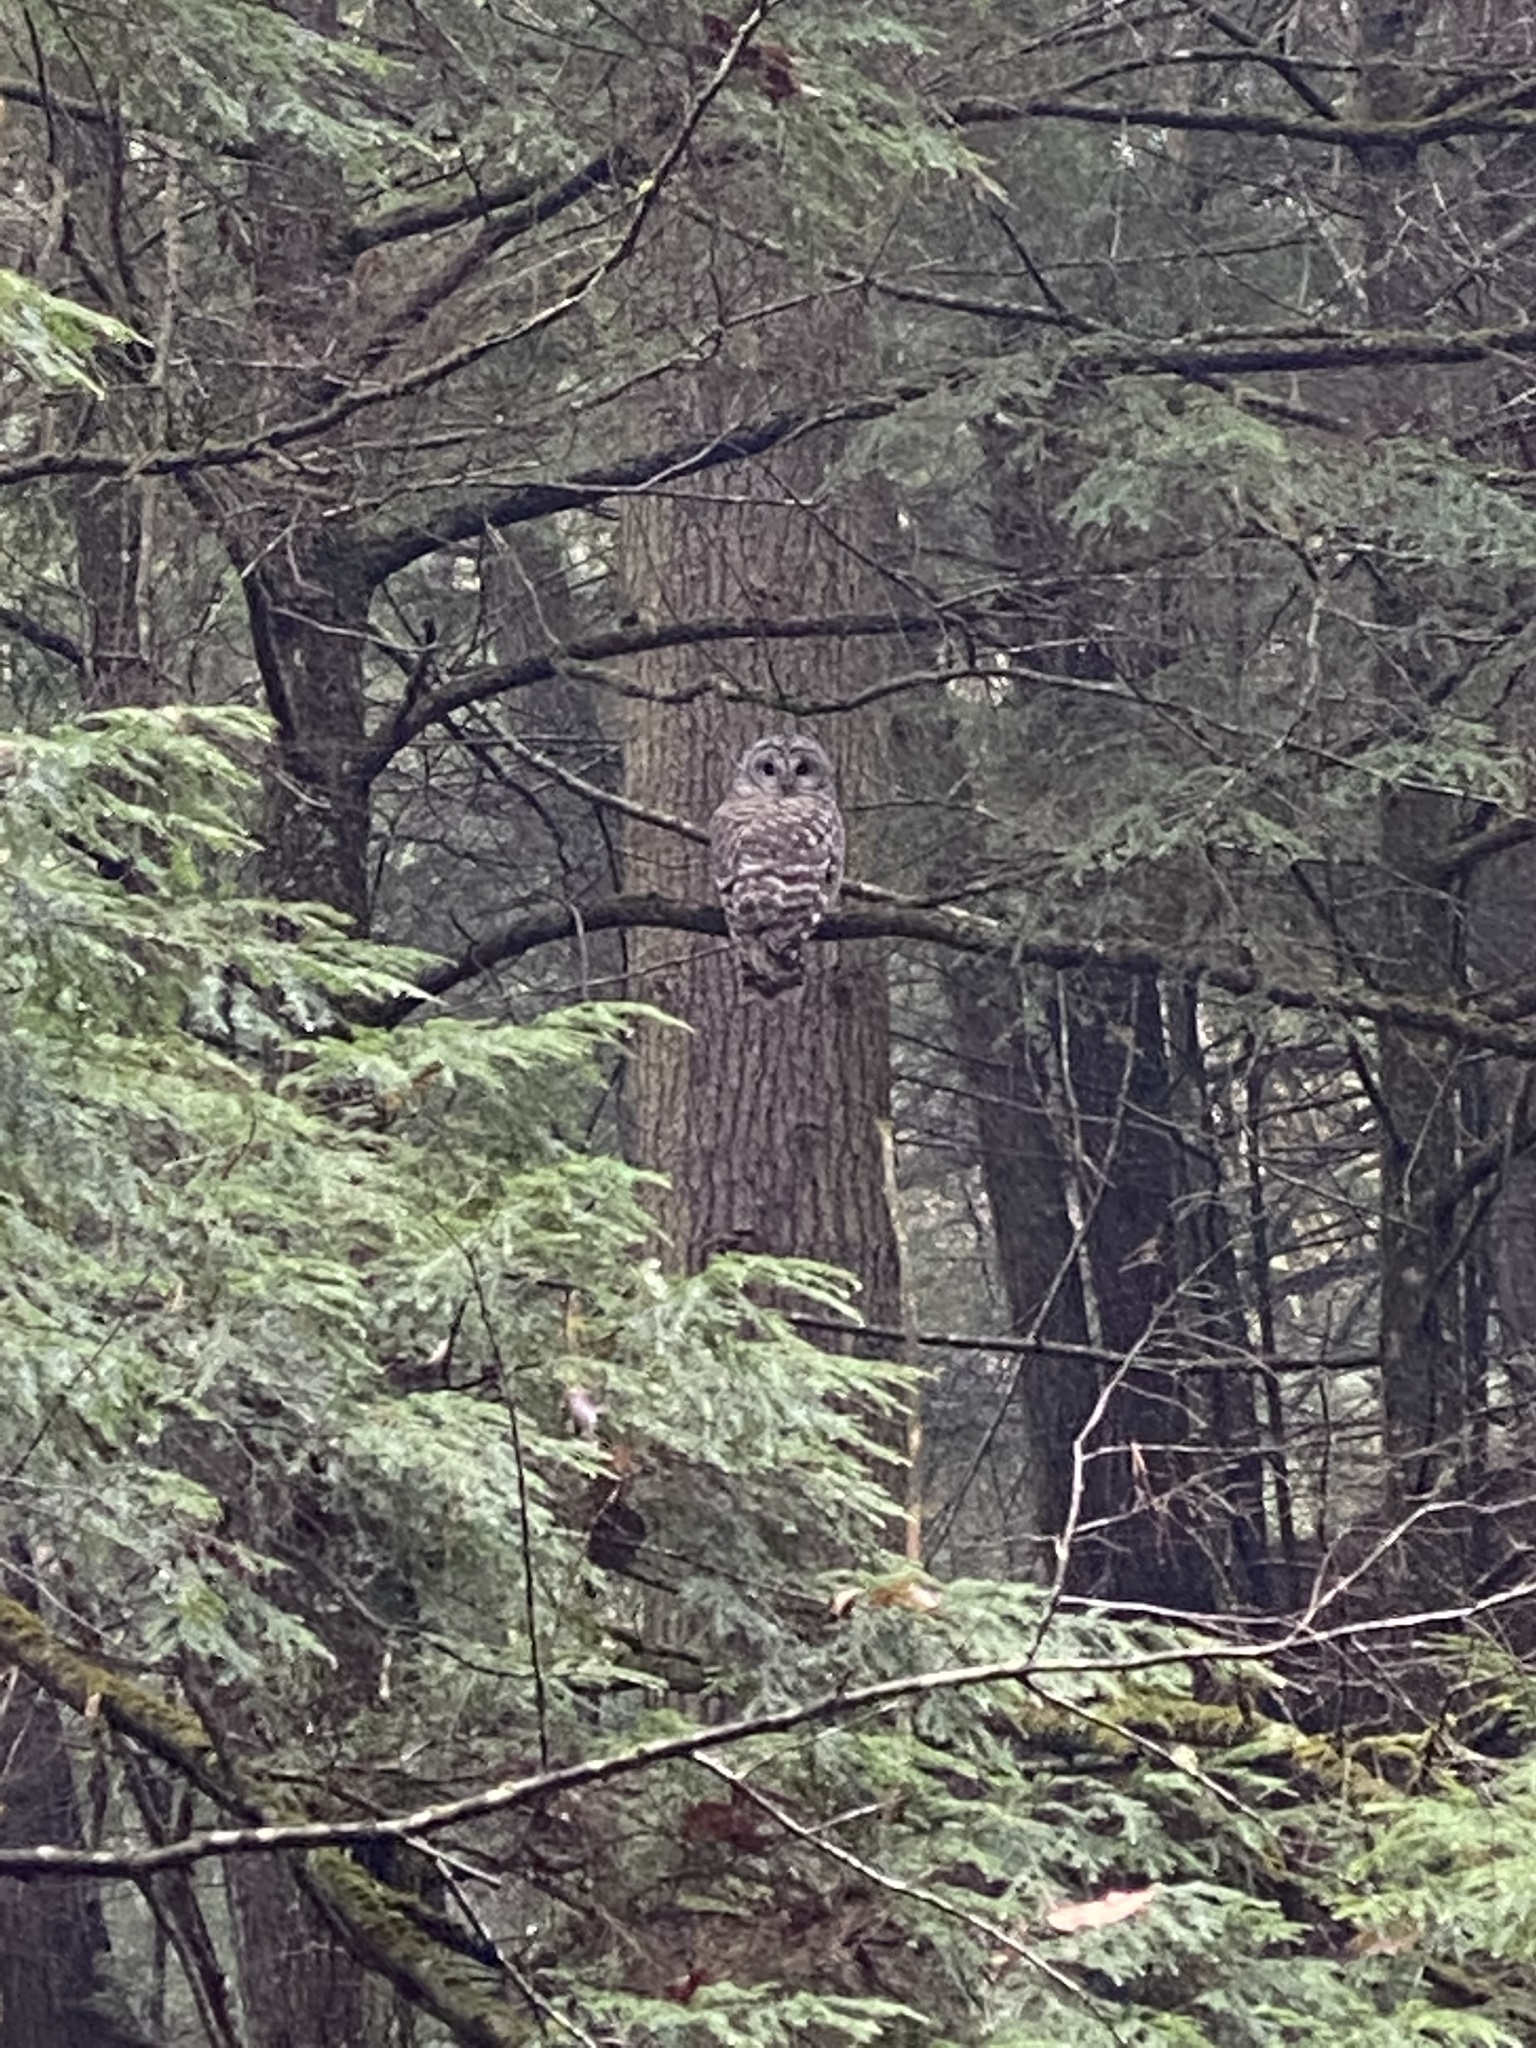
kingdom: Animalia
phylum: Chordata
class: Aves
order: Strigiformes
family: Strigidae
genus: Strix
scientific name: Strix varia
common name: Barred owl
